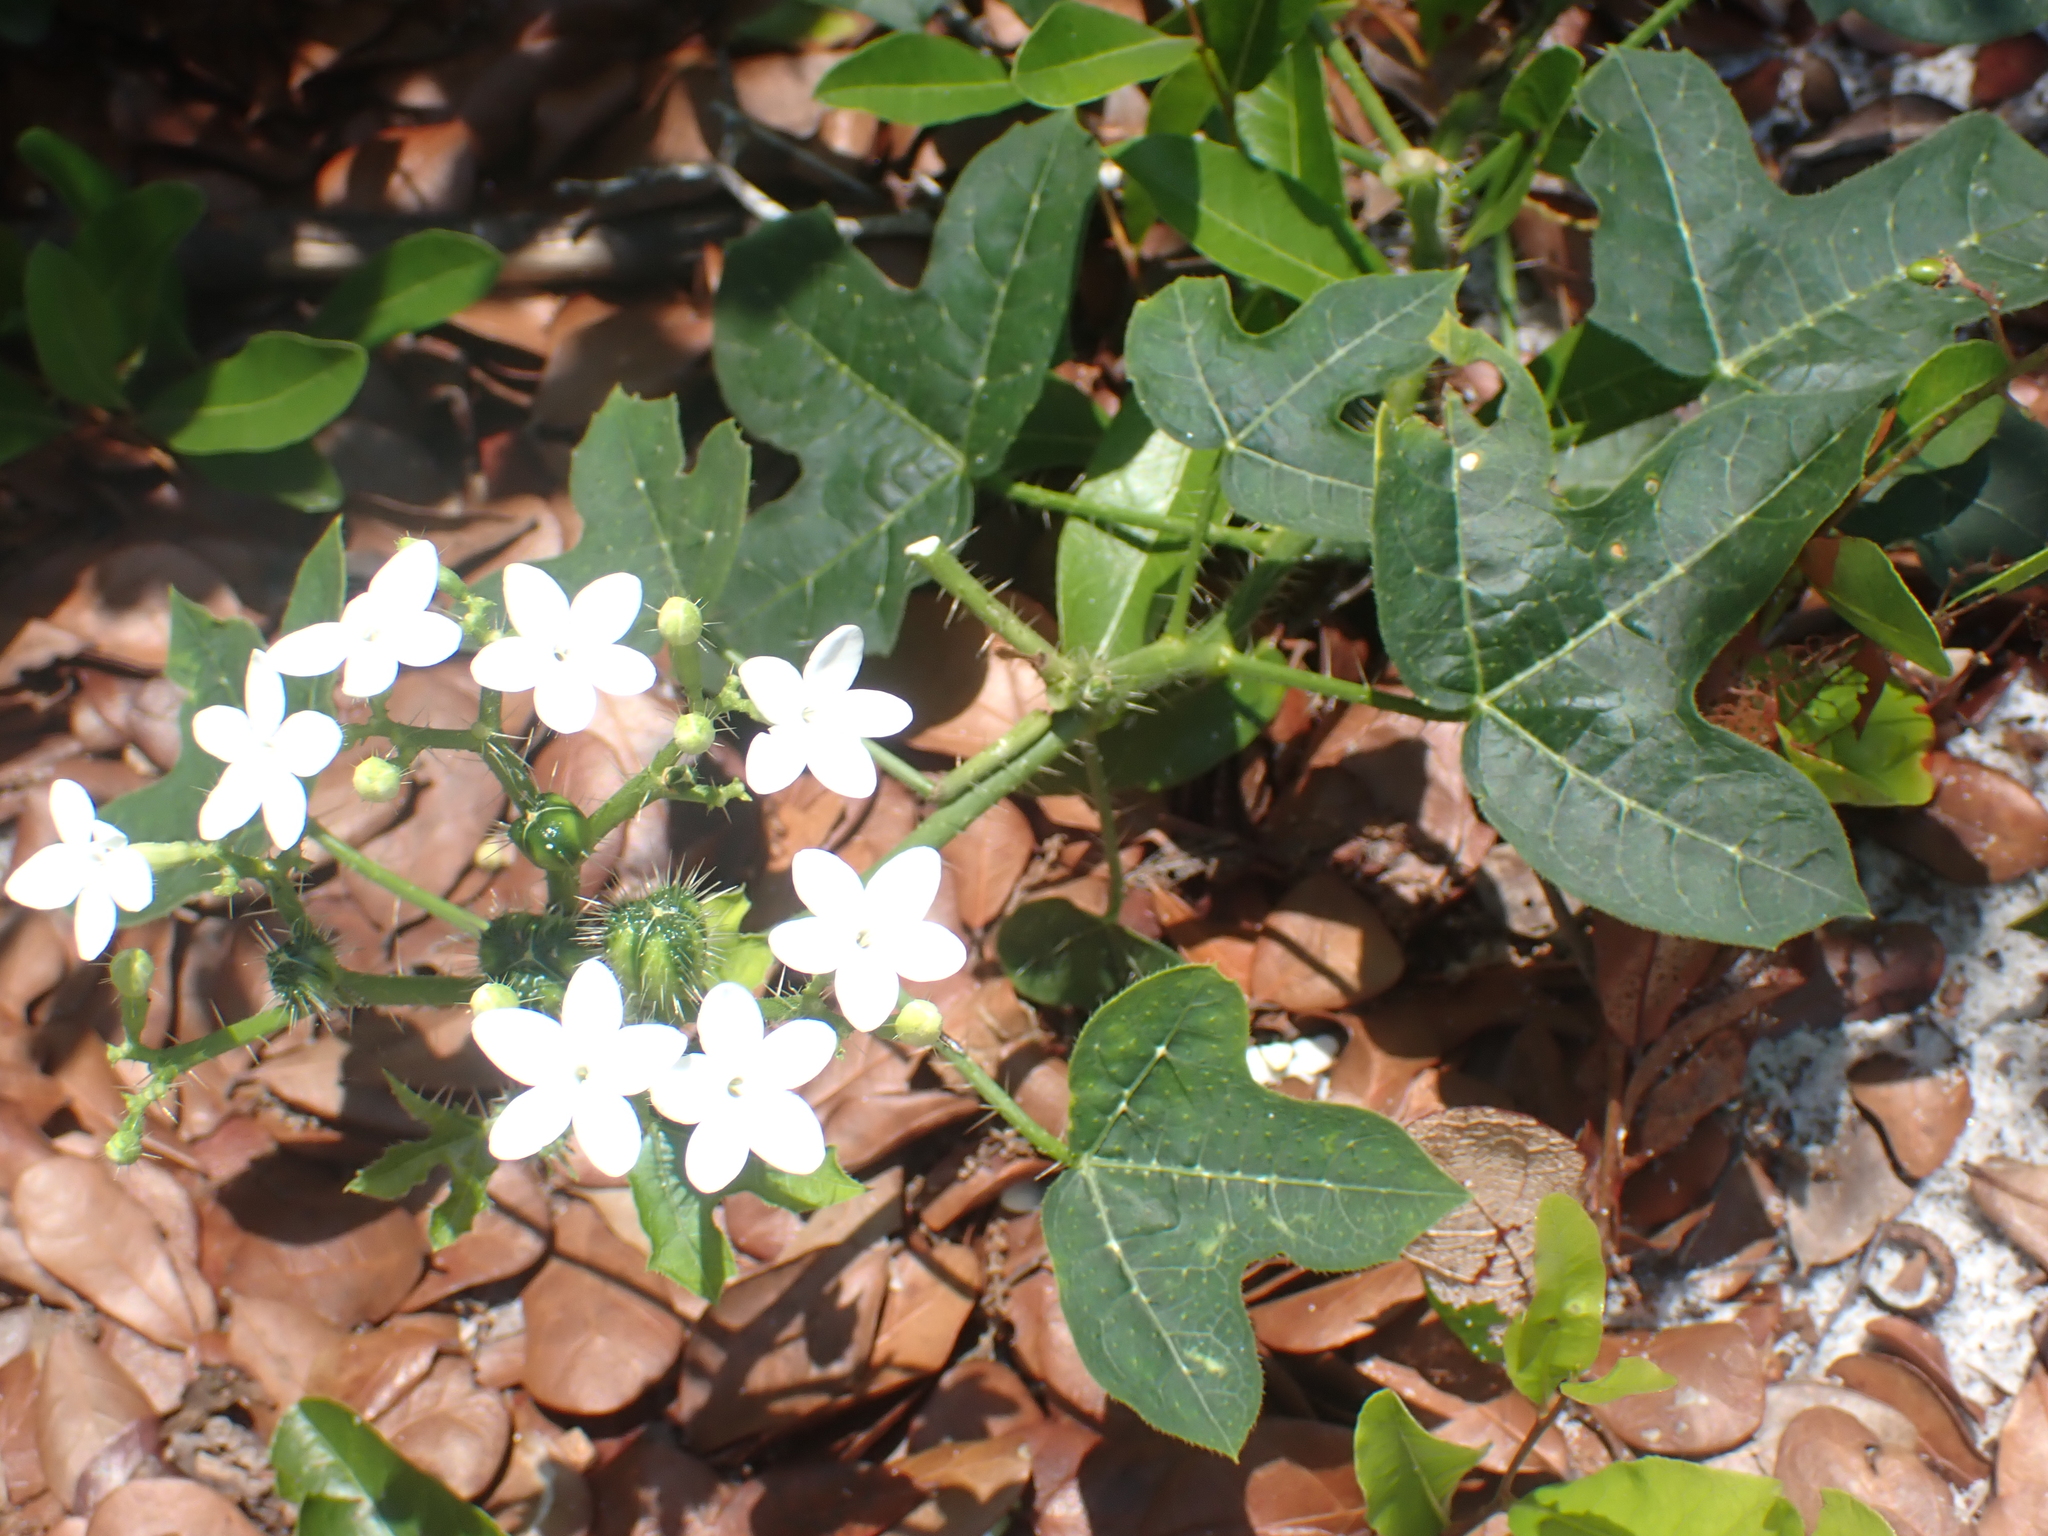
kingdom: Plantae
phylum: Tracheophyta
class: Magnoliopsida
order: Malpighiales
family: Euphorbiaceae
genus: Cnidoscolus
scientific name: Cnidoscolus stimulosus
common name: Bull-nettle
